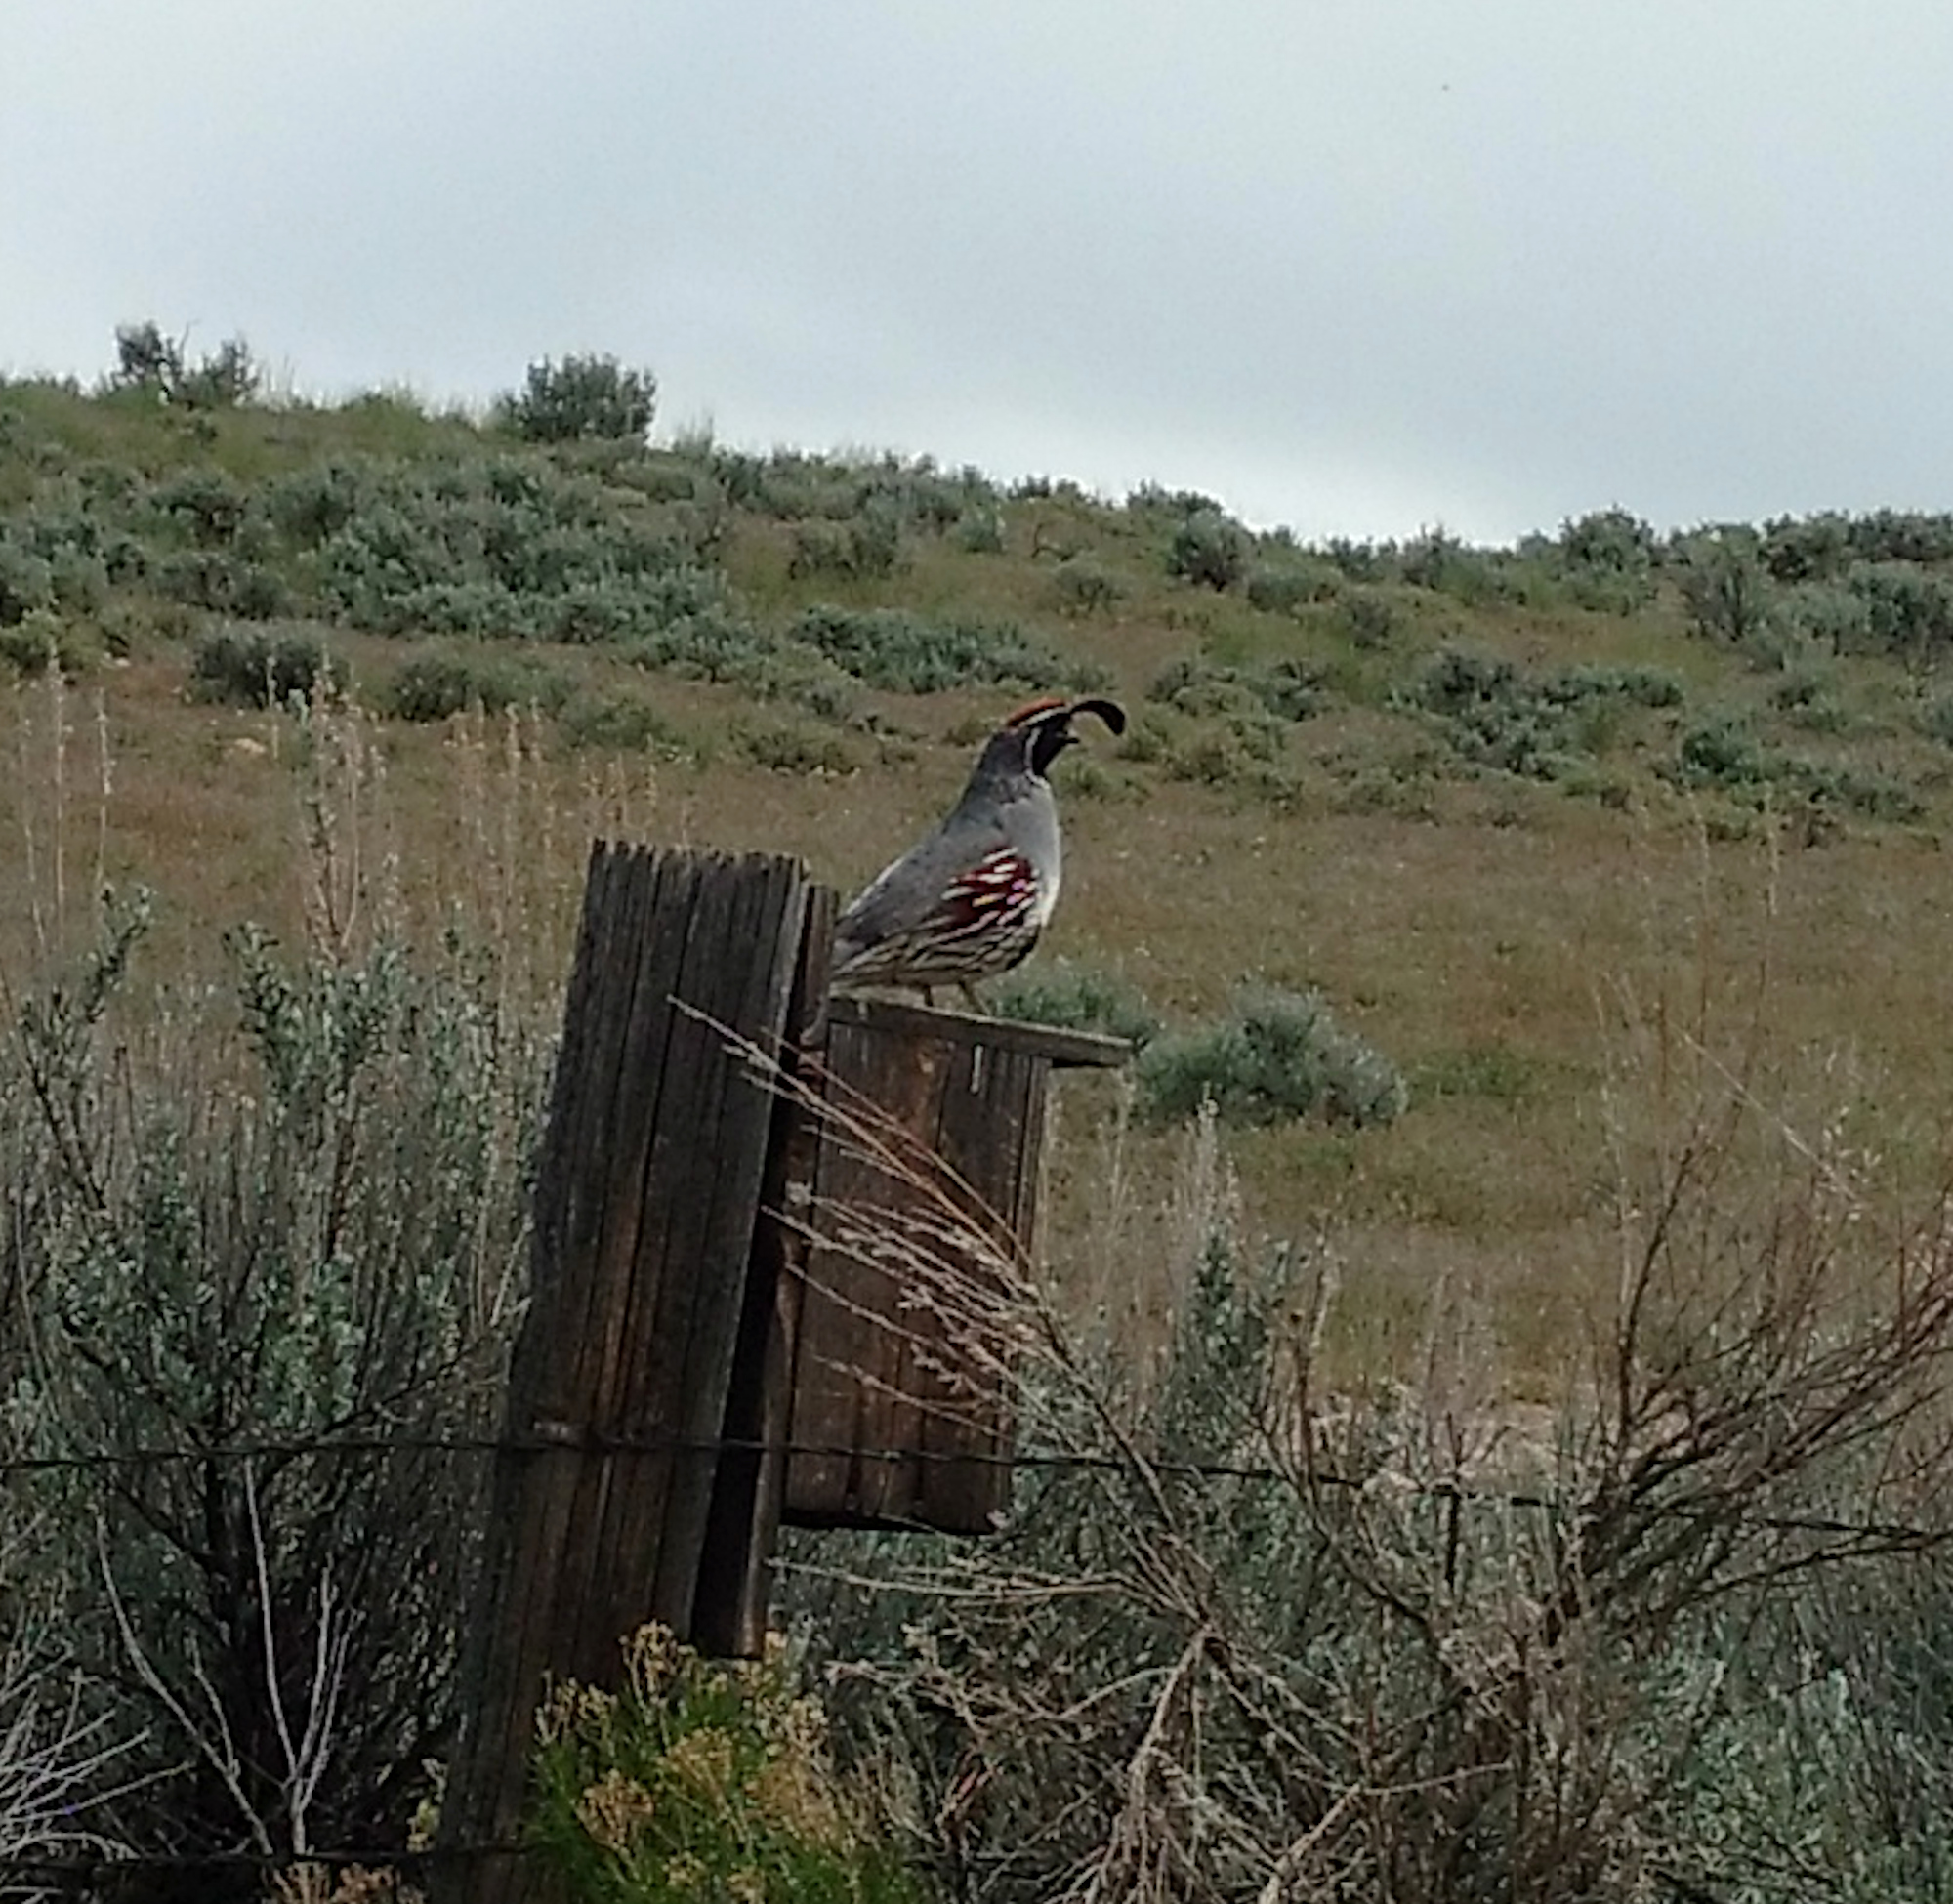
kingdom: Animalia
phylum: Chordata
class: Aves
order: Galliformes
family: Odontophoridae
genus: Callipepla
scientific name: Callipepla gambelii
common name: Gambel's quail
